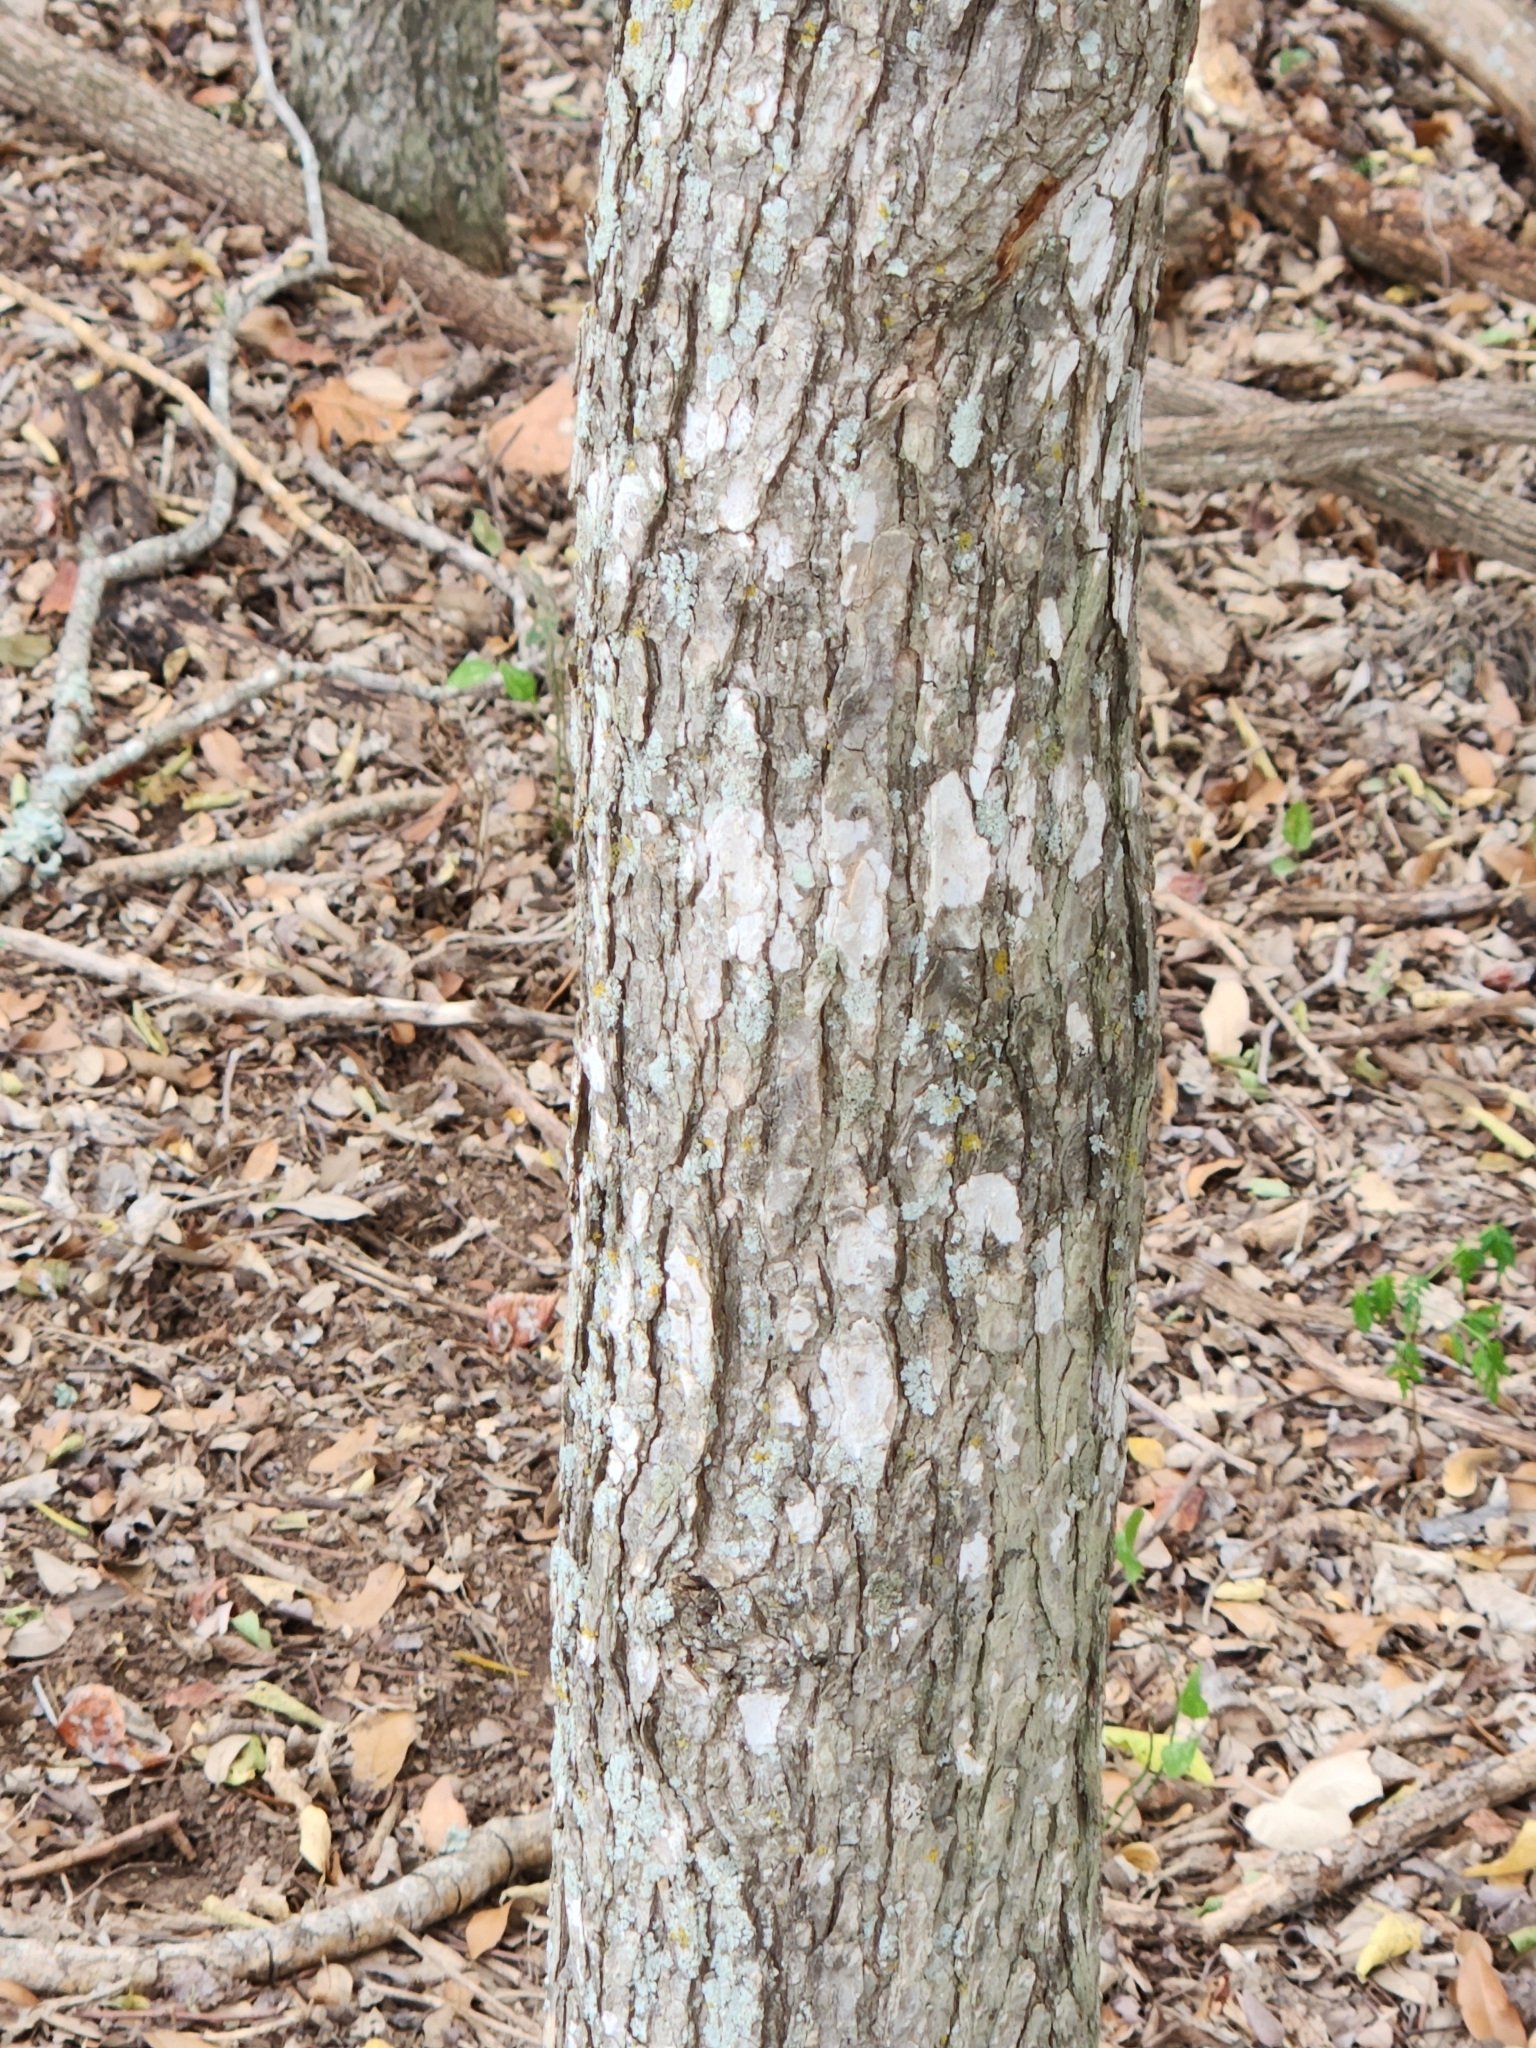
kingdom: Plantae
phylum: Tracheophyta
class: Magnoliopsida
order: Rosales
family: Ulmaceae
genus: Ulmus
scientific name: Ulmus crassifolia
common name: Basket elm
